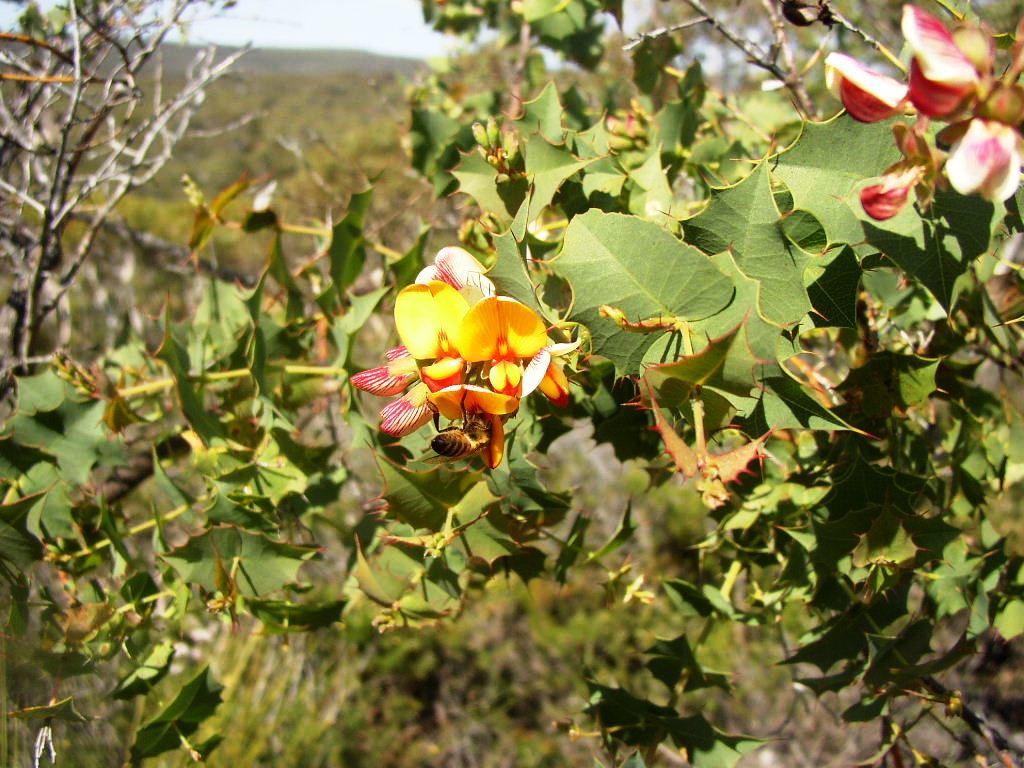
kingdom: Animalia
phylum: Arthropoda
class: Insecta
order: Hymenoptera
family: Apidae
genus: Apis
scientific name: Apis mellifera
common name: Honey bee
